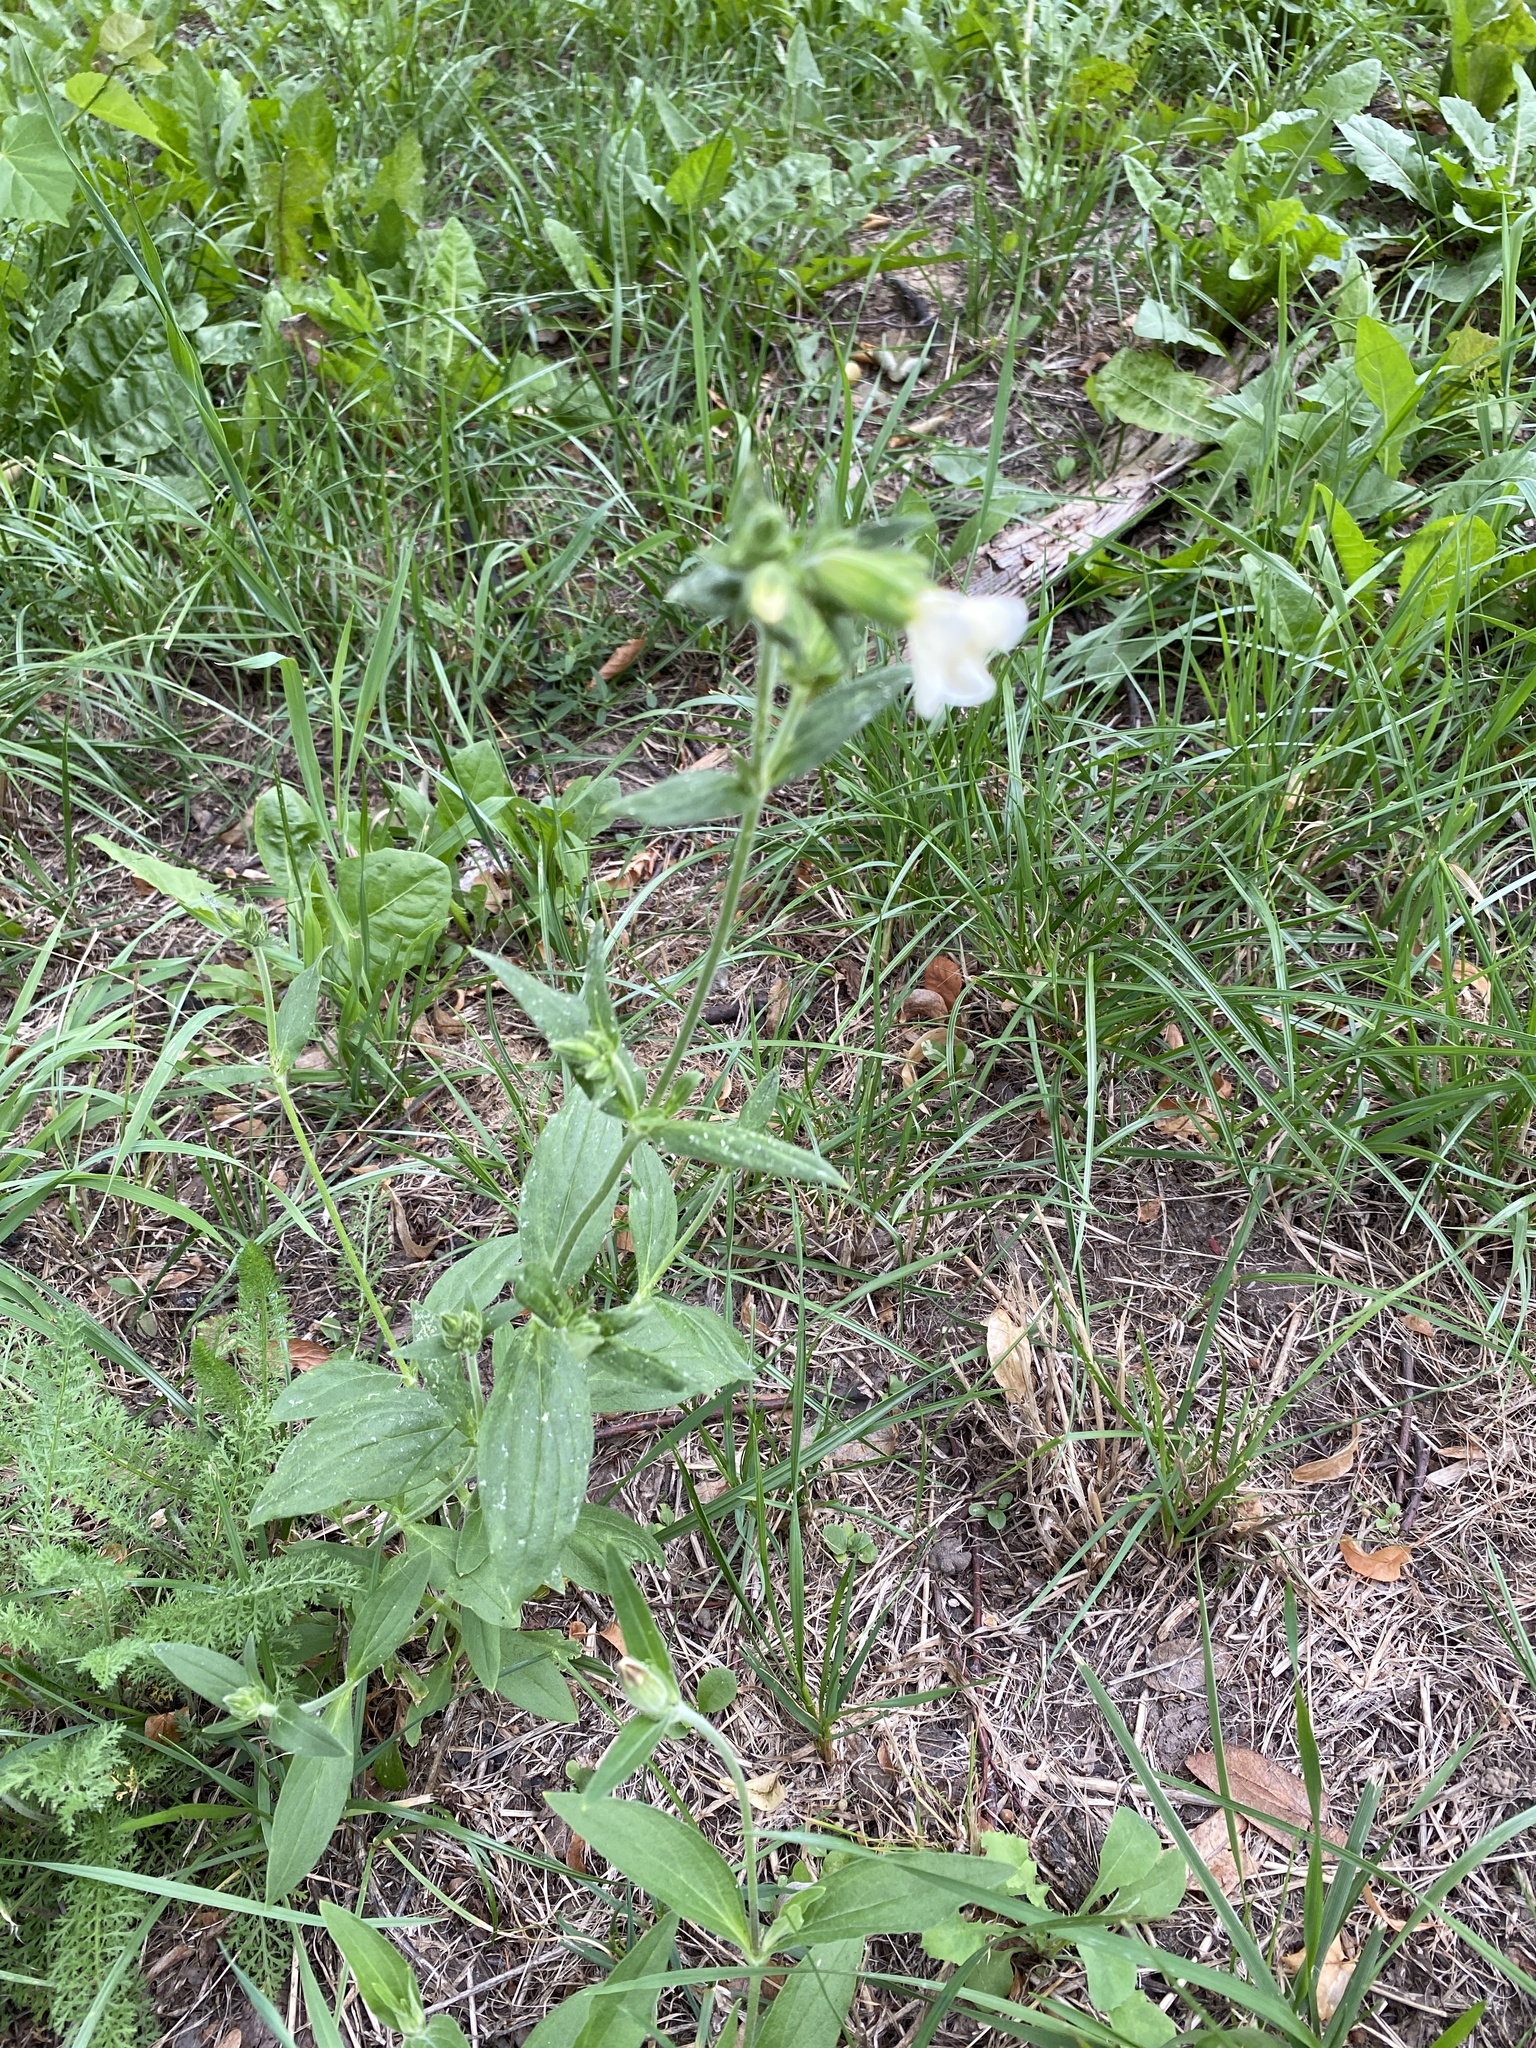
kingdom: Plantae
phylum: Tracheophyta
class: Magnoliopsida
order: Caryophyllales
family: Caryophyllaceae
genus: Silene
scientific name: Silene latifolia
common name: White campion
